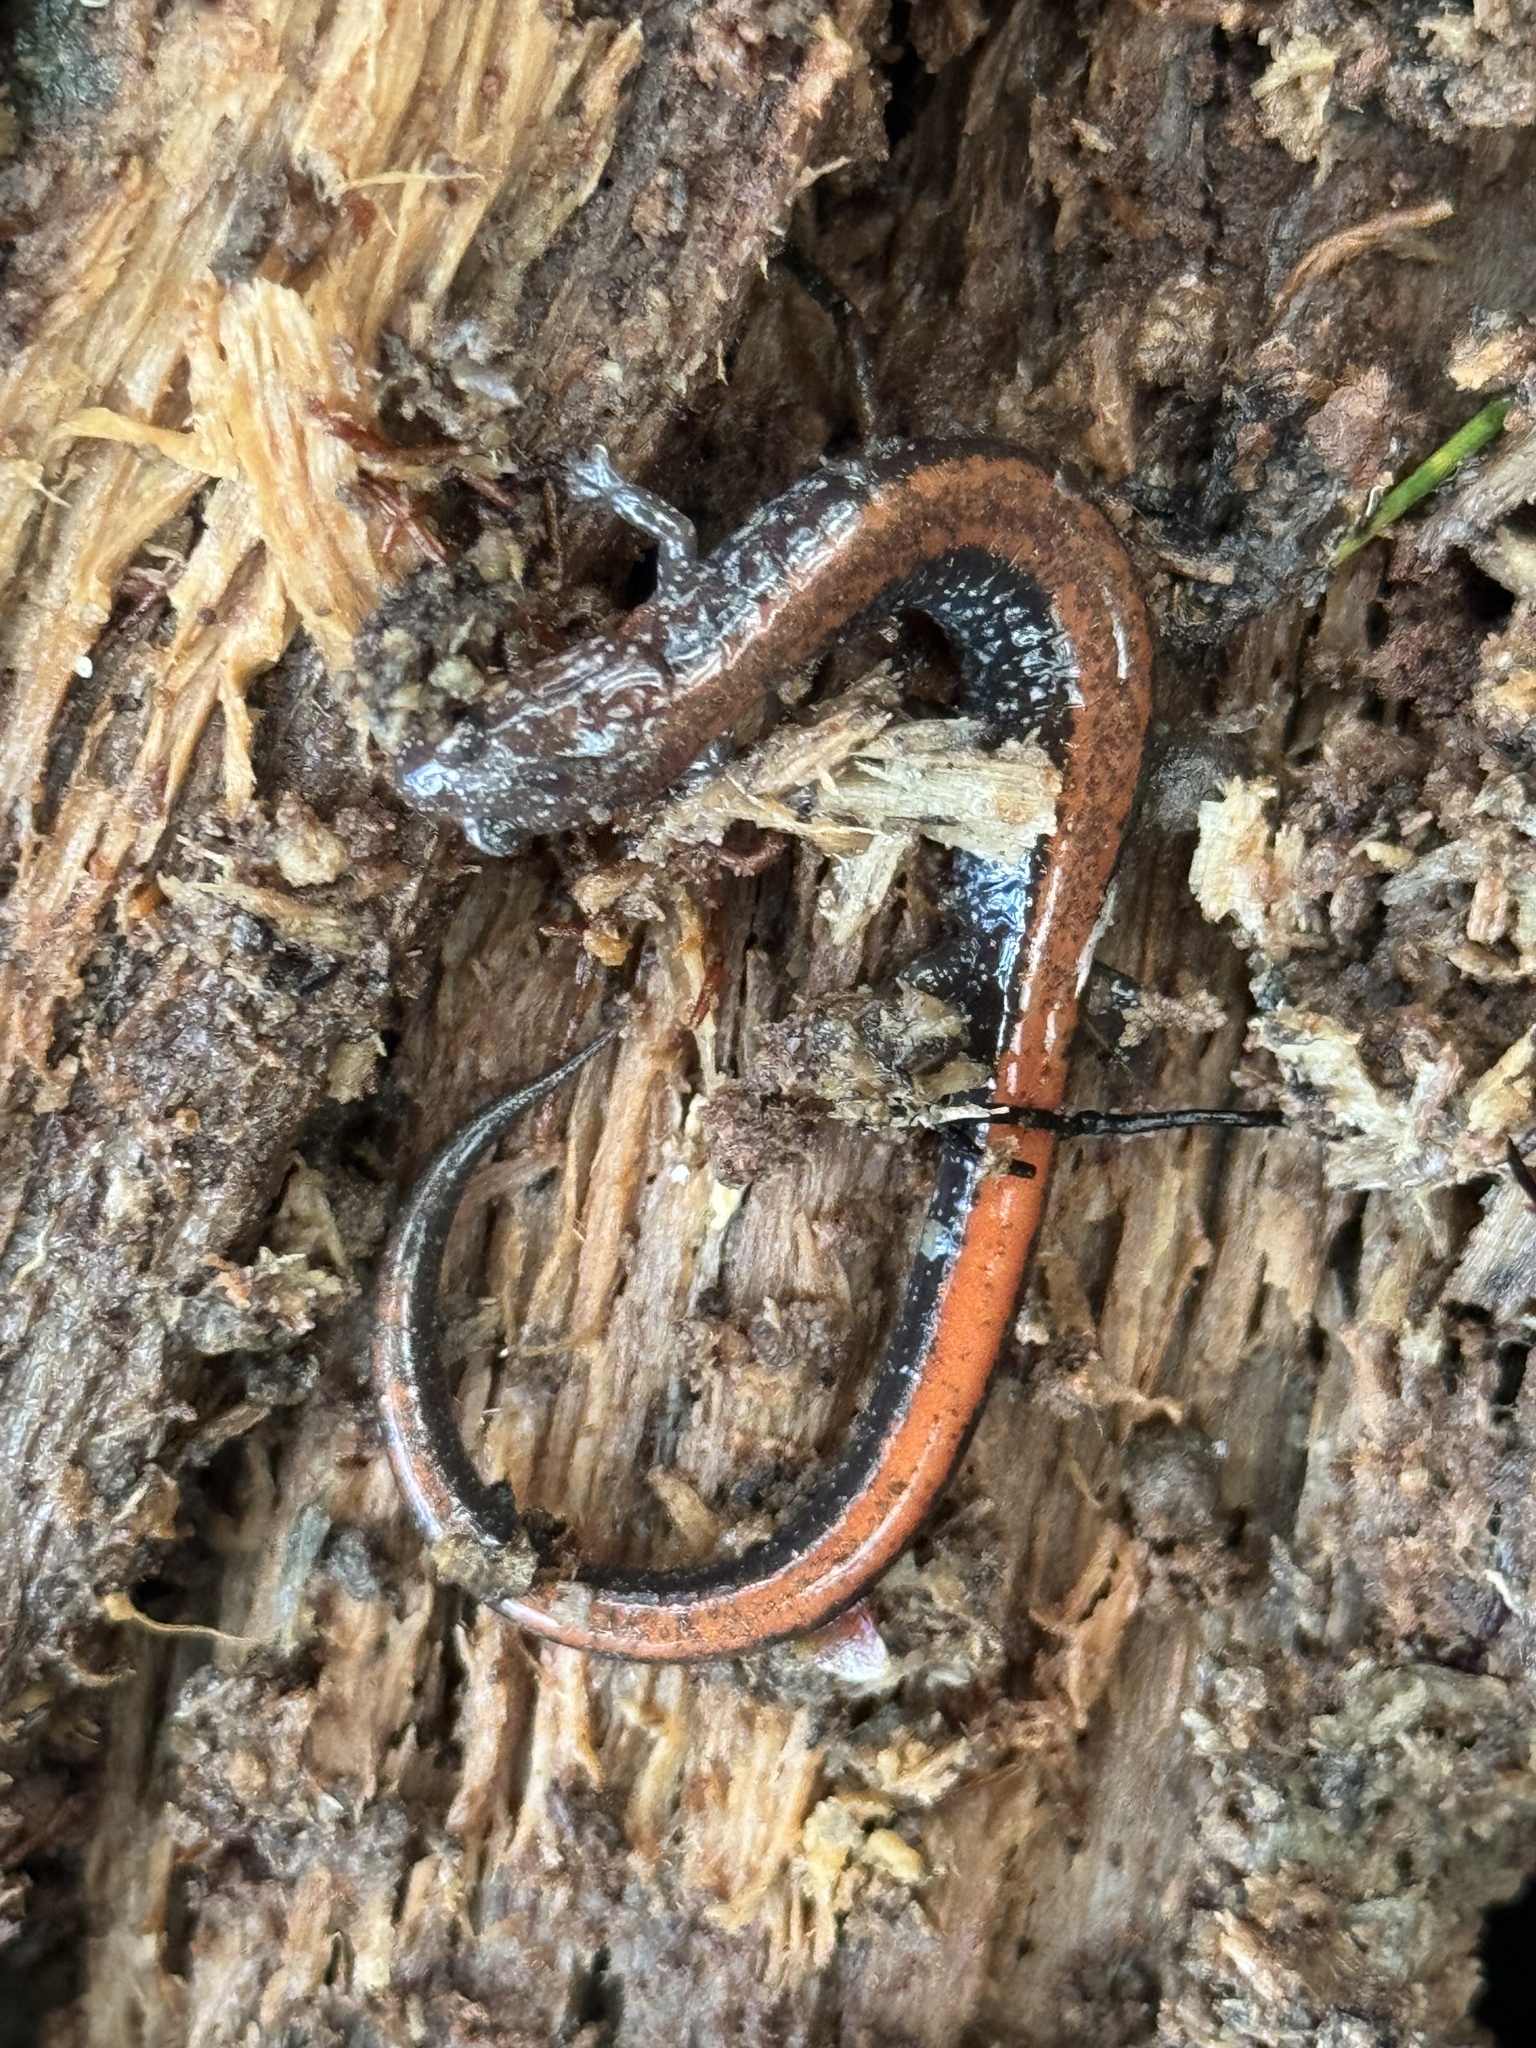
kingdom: Animalia
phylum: Chordata
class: Amphibia
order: Caudata
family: Plethodontidae
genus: Plethodon
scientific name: Plethodon cinereus
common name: Redback salamander
